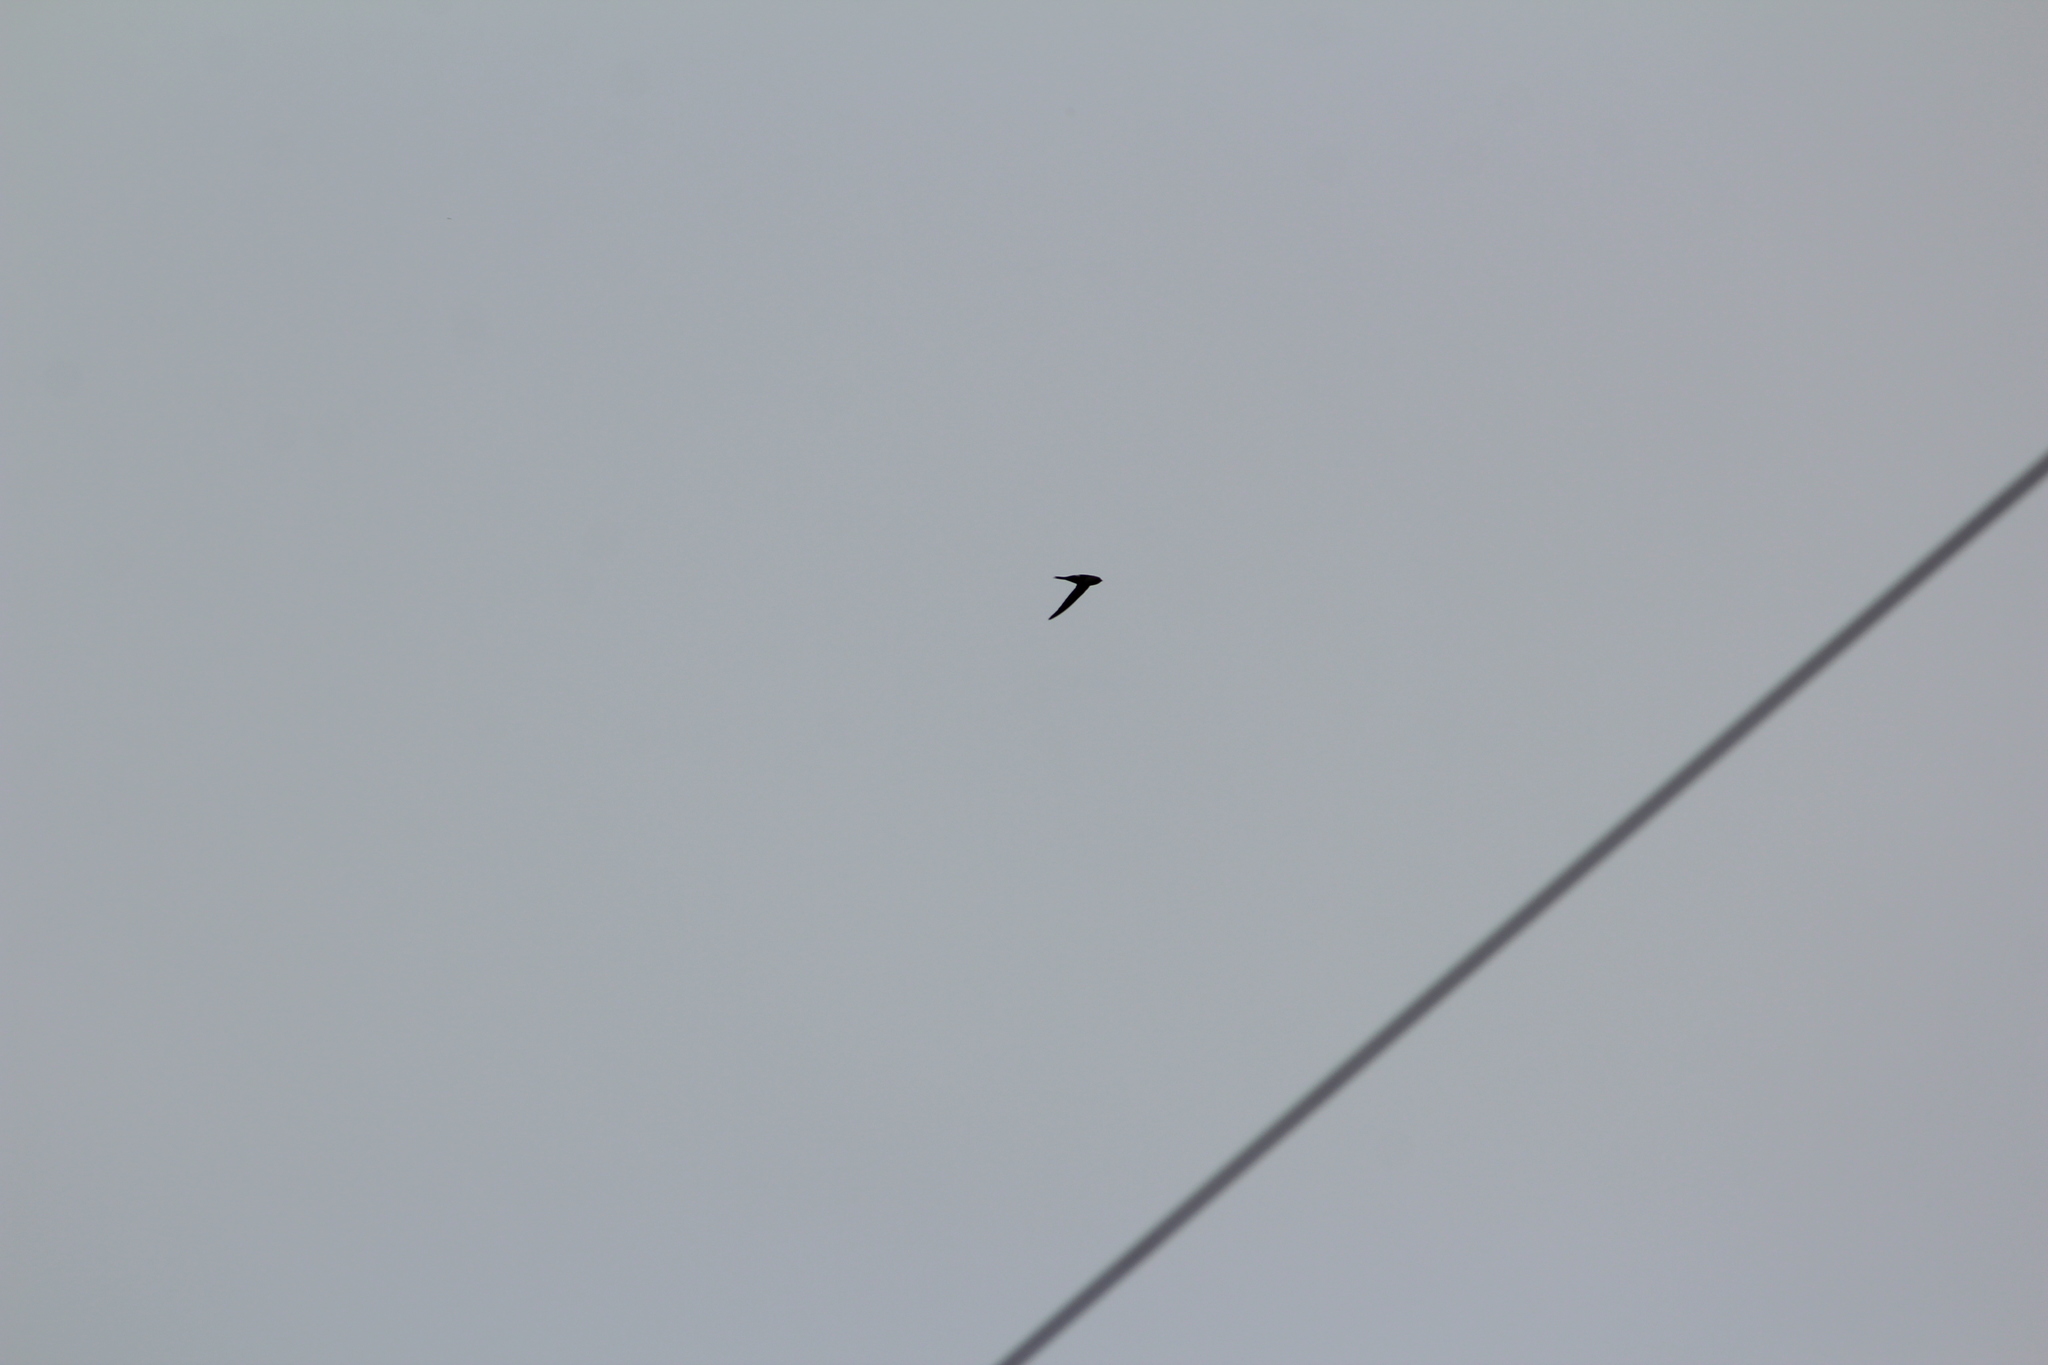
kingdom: Animalia
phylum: Chordata
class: Aves
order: Apodiformes
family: Apodidae
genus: Apus
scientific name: Apus pacificus
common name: Pacific swift
